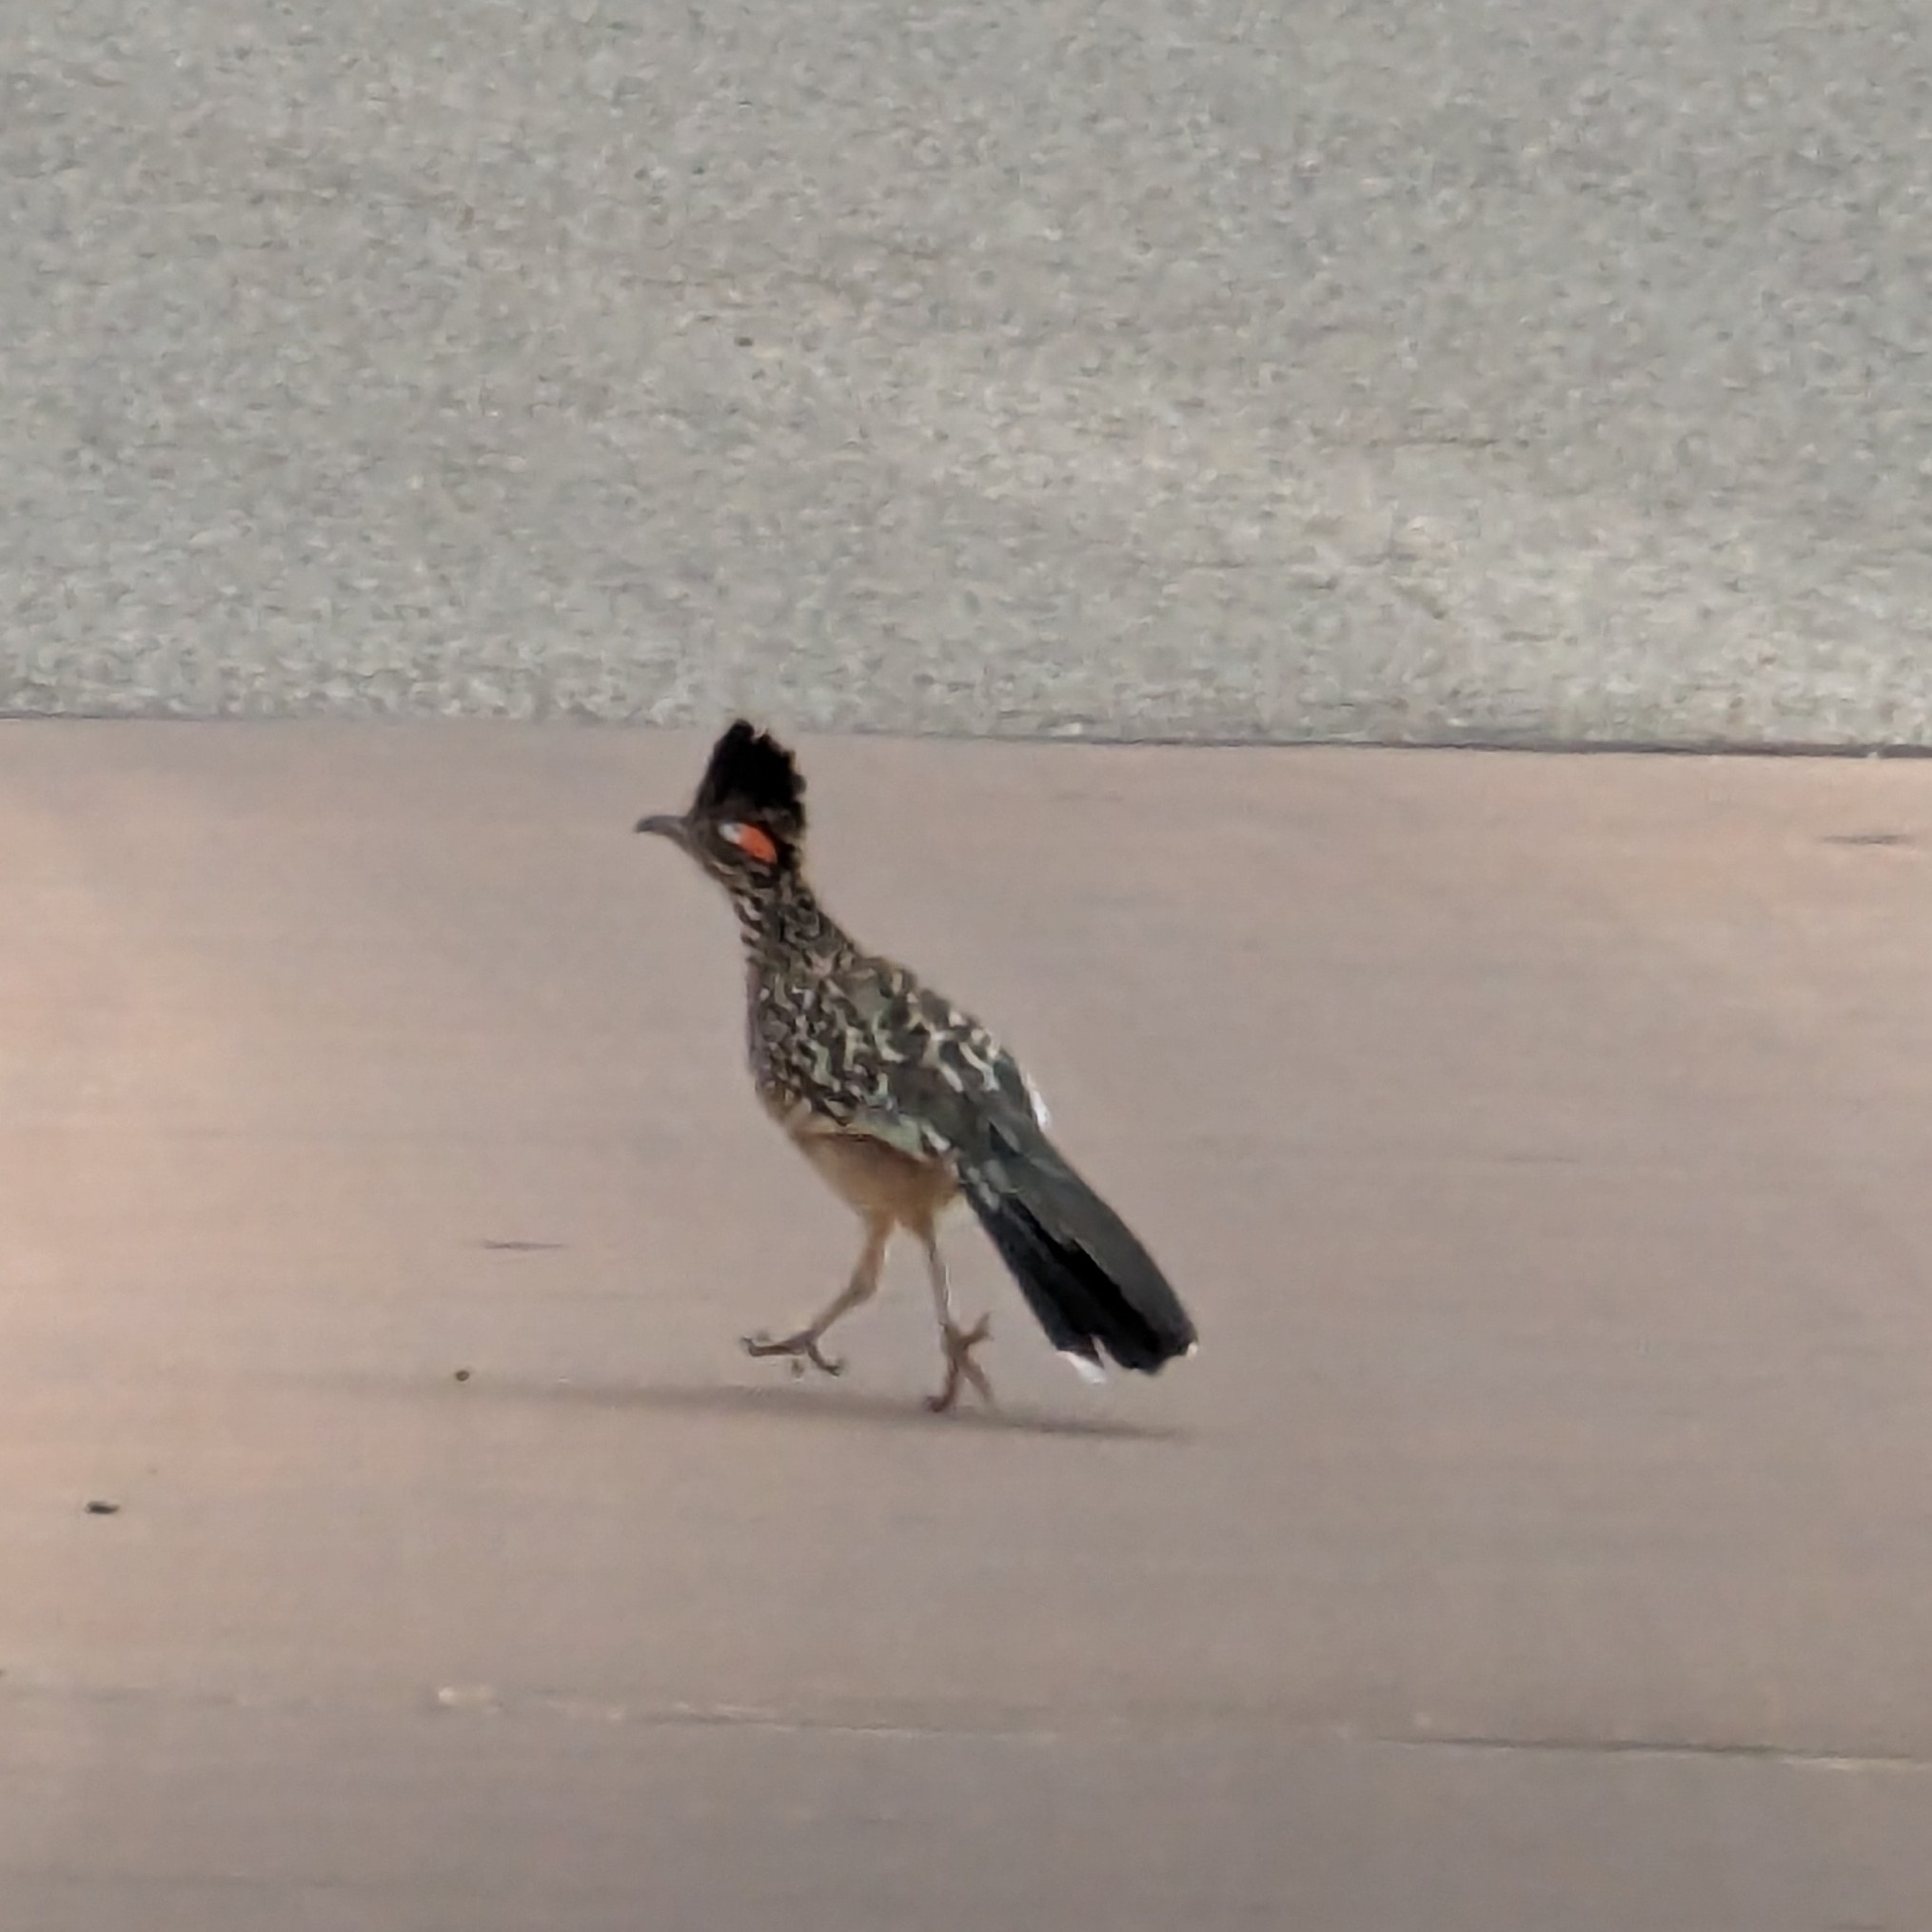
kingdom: Animalia
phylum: Chordata
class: Aves
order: Cuculiformes
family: Cuculidae
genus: Geococcyx
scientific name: Geococcyx californianus
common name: Greater roadrunner
